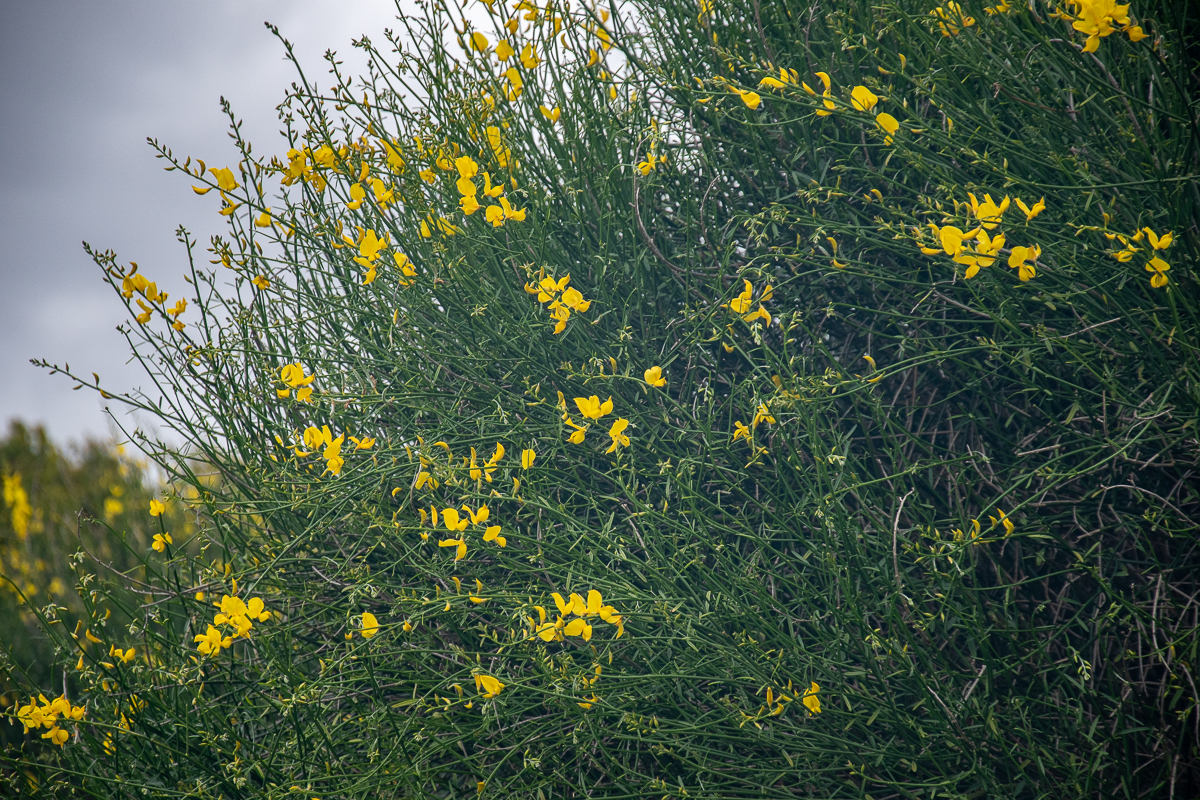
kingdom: Plantae
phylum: Tracheophyta
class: Magnoliopsida
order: Fabales
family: Fabaceae
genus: Spartium
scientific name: Spartium junceum
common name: Spanish broom
